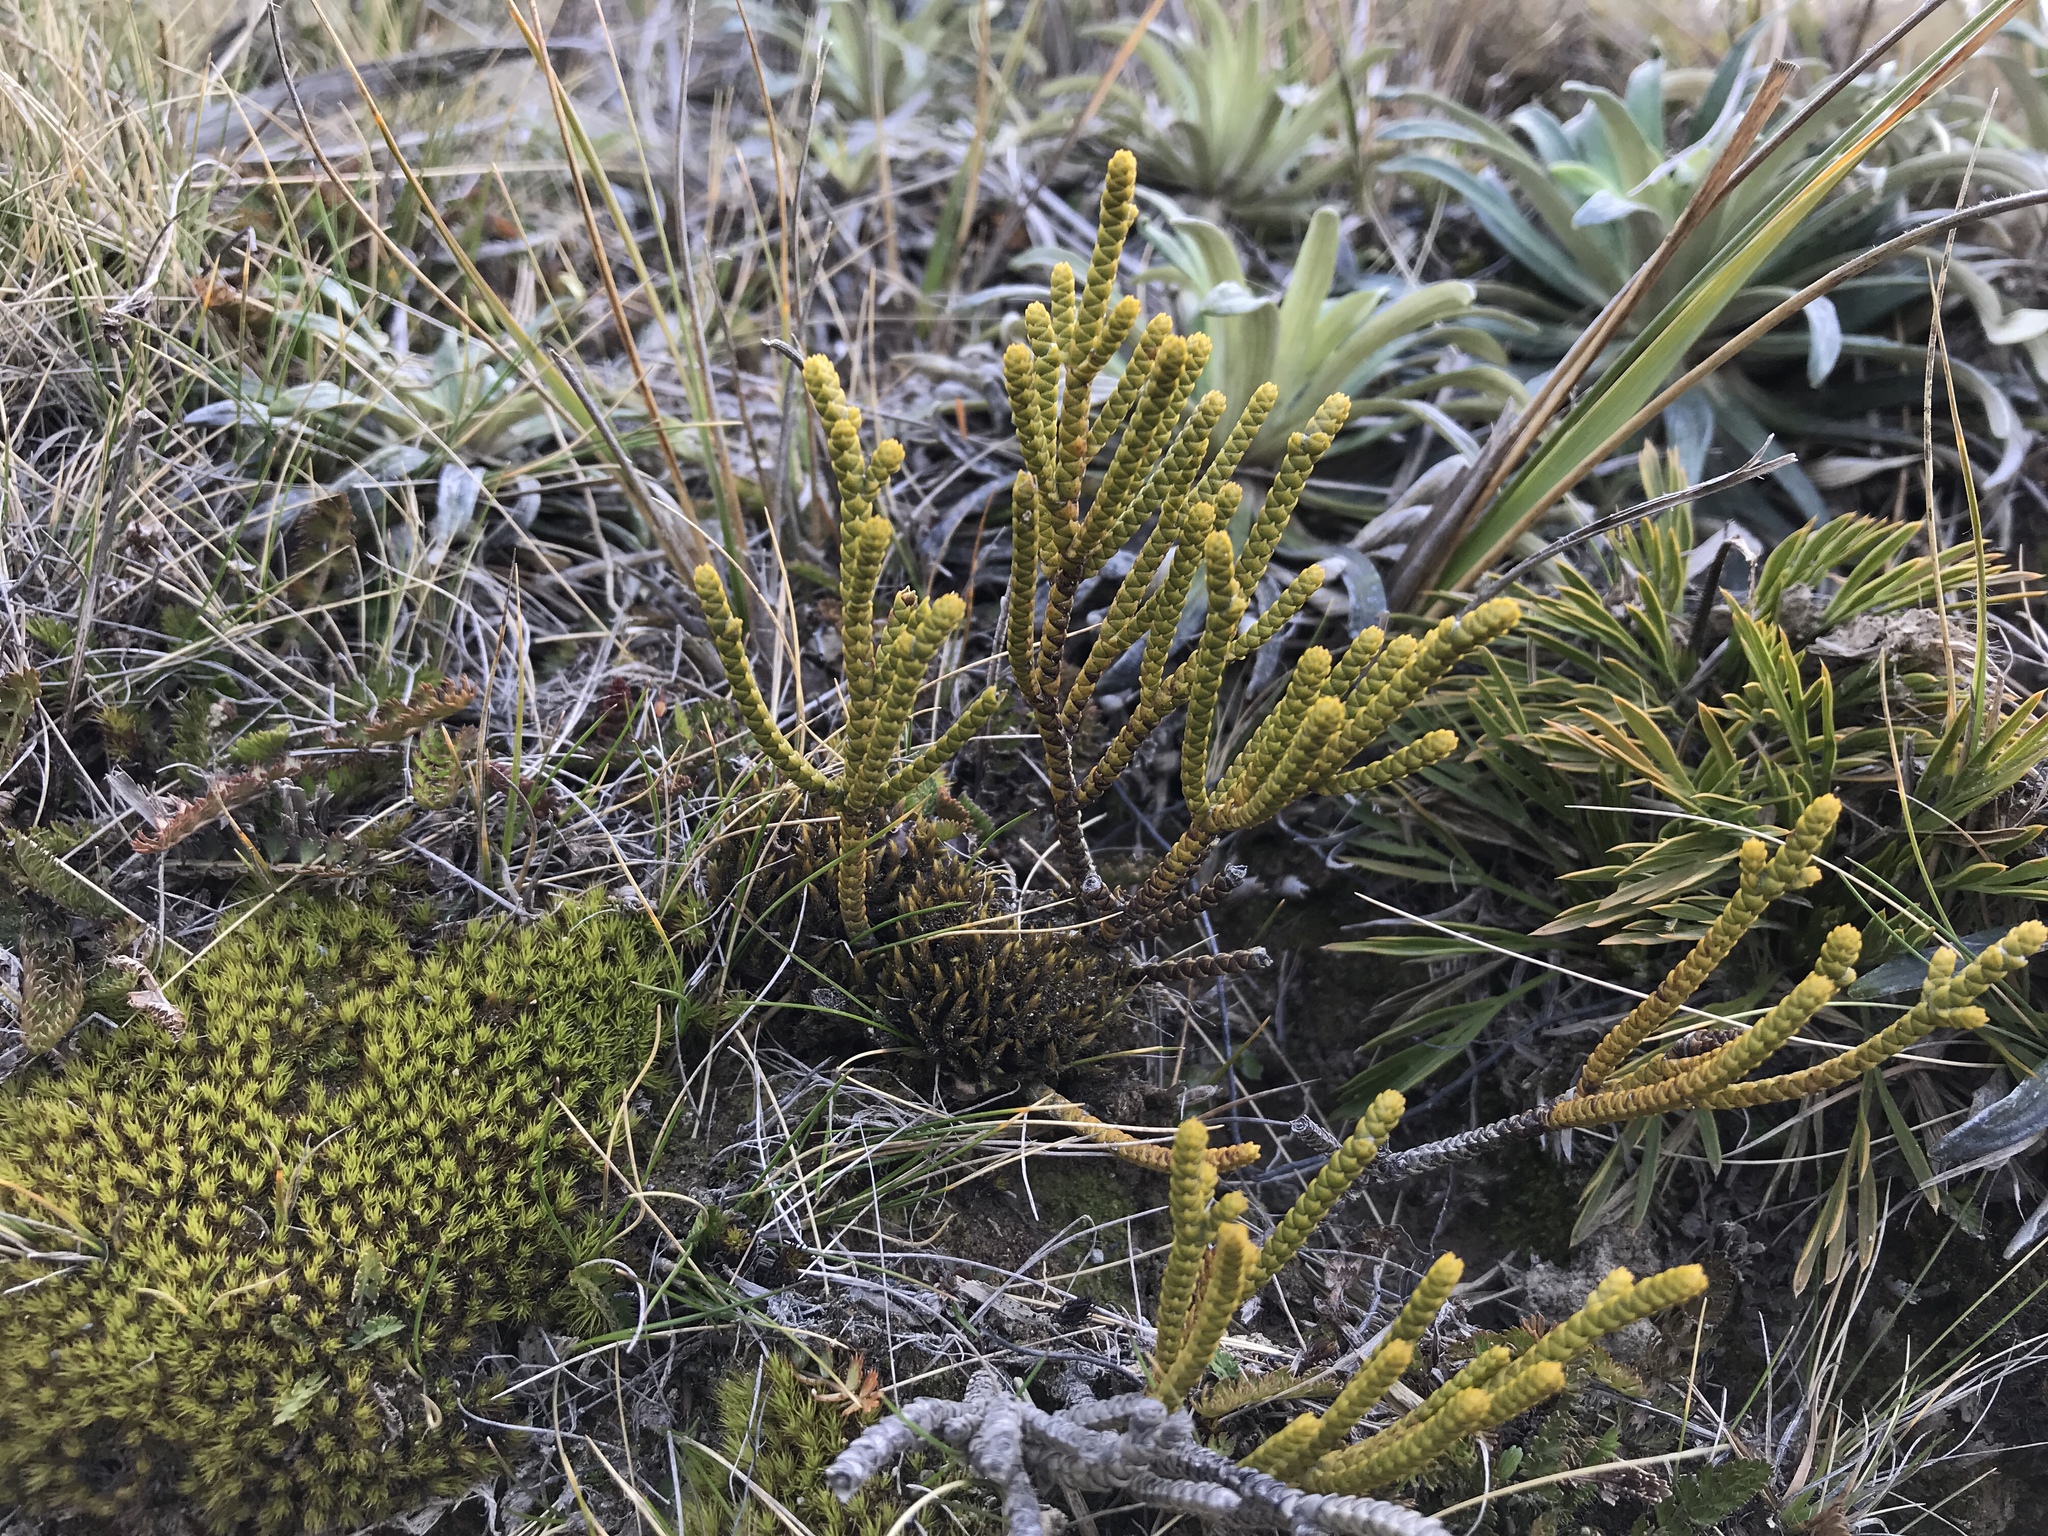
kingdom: Plantae
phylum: Tracheophyta
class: Magnoliopsida
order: Lamiales
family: Plantaginaceae
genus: Veronica
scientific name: Veronica lycopodioides
